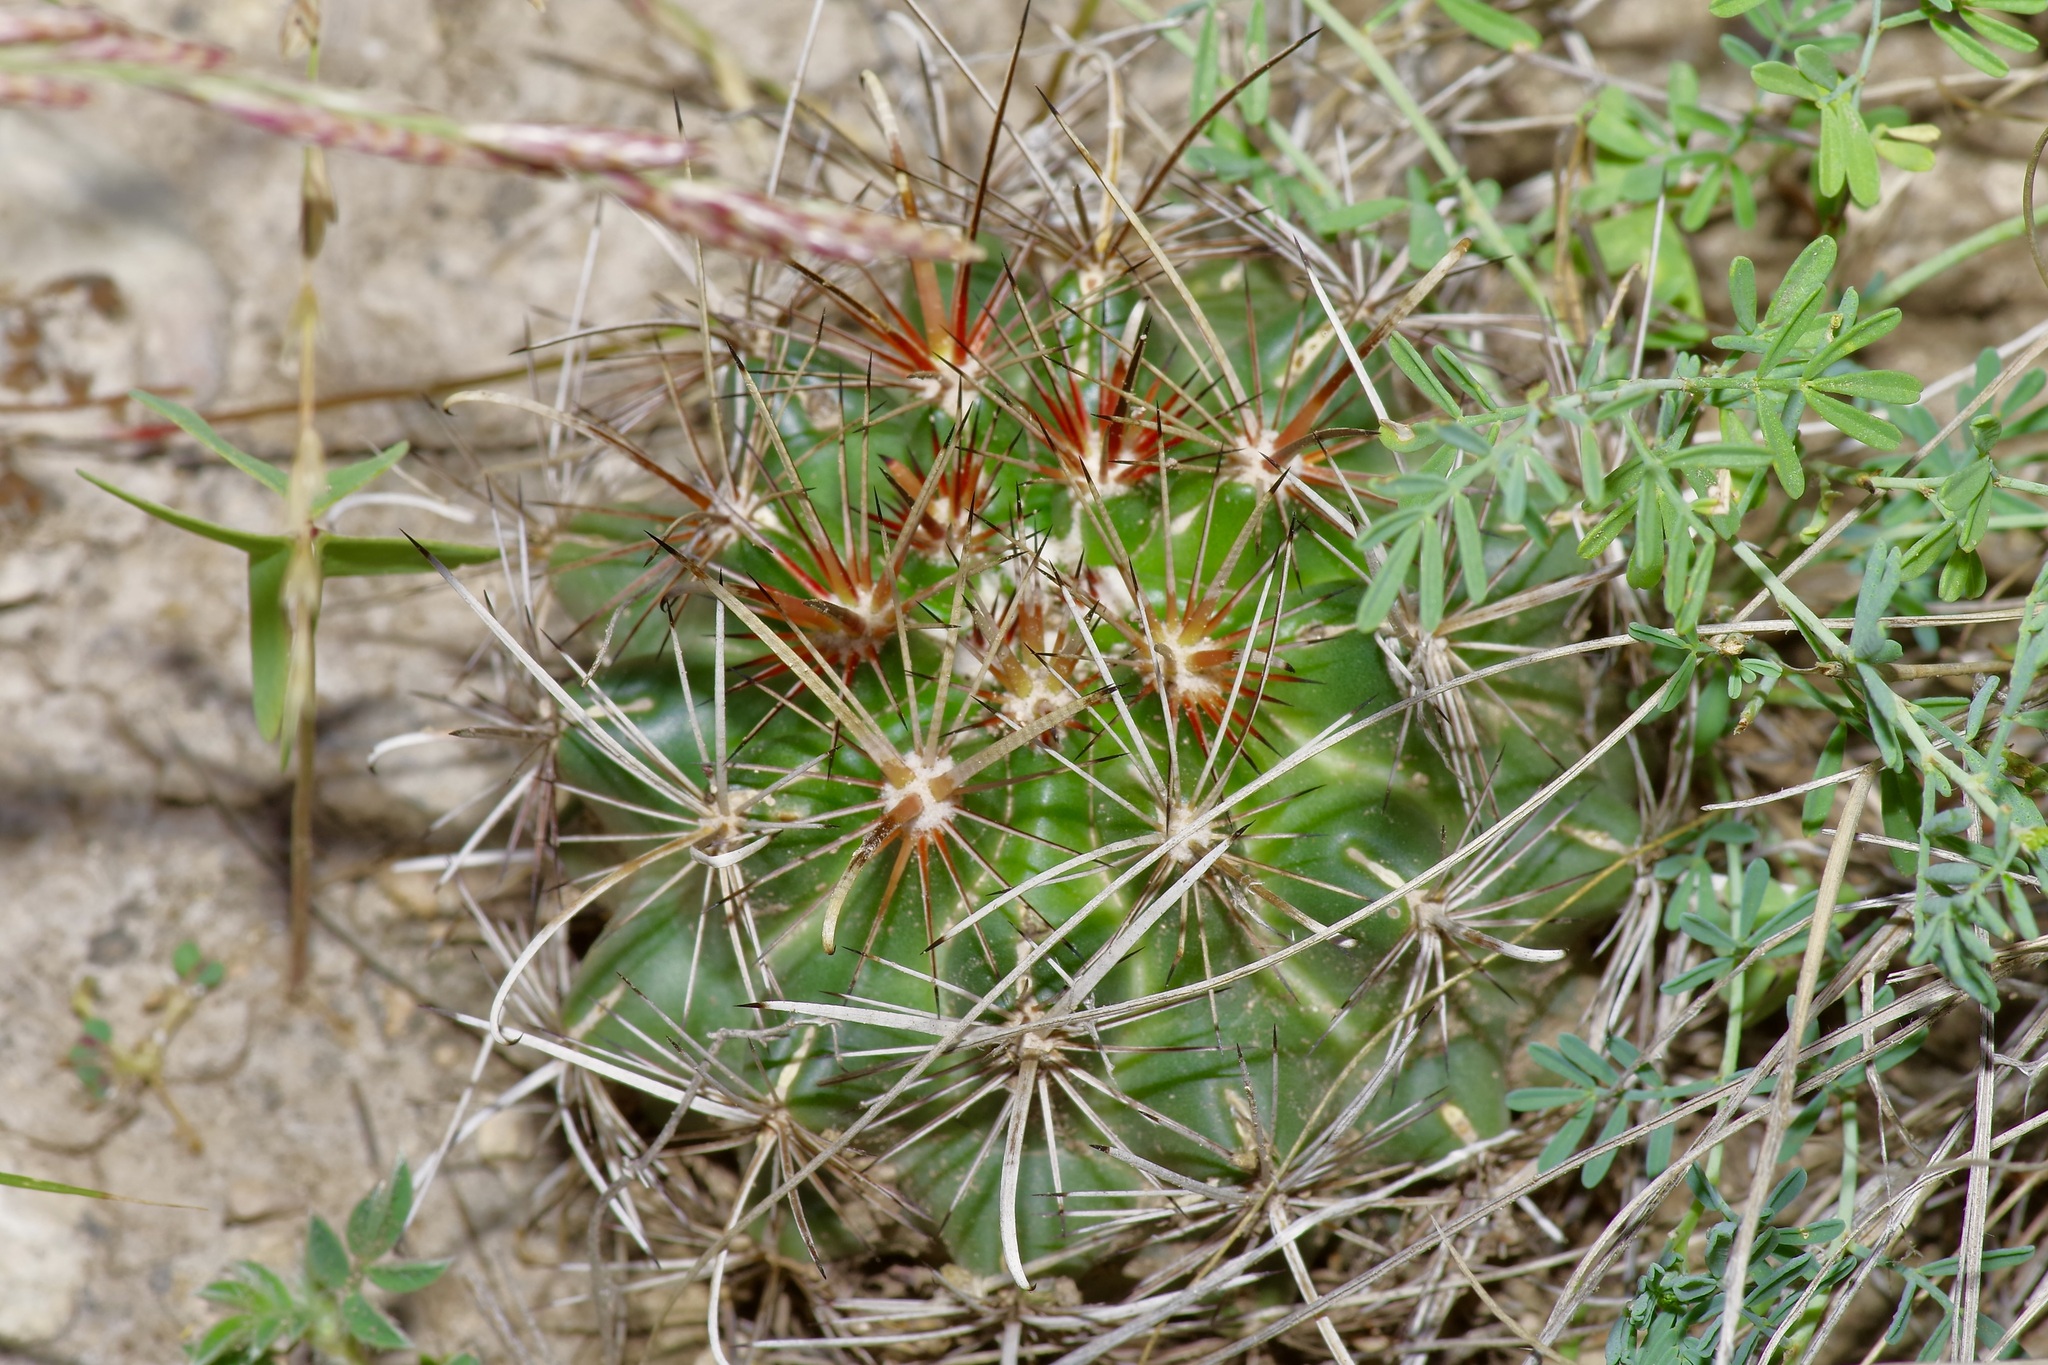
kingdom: Plantae
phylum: Tracheophyta
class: Magnoliopsida
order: Caryophyllales
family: Cactaceae
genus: Sclerocactus
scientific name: Sclerocactus brevihamatus
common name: Engelmann's fishhook cactus
